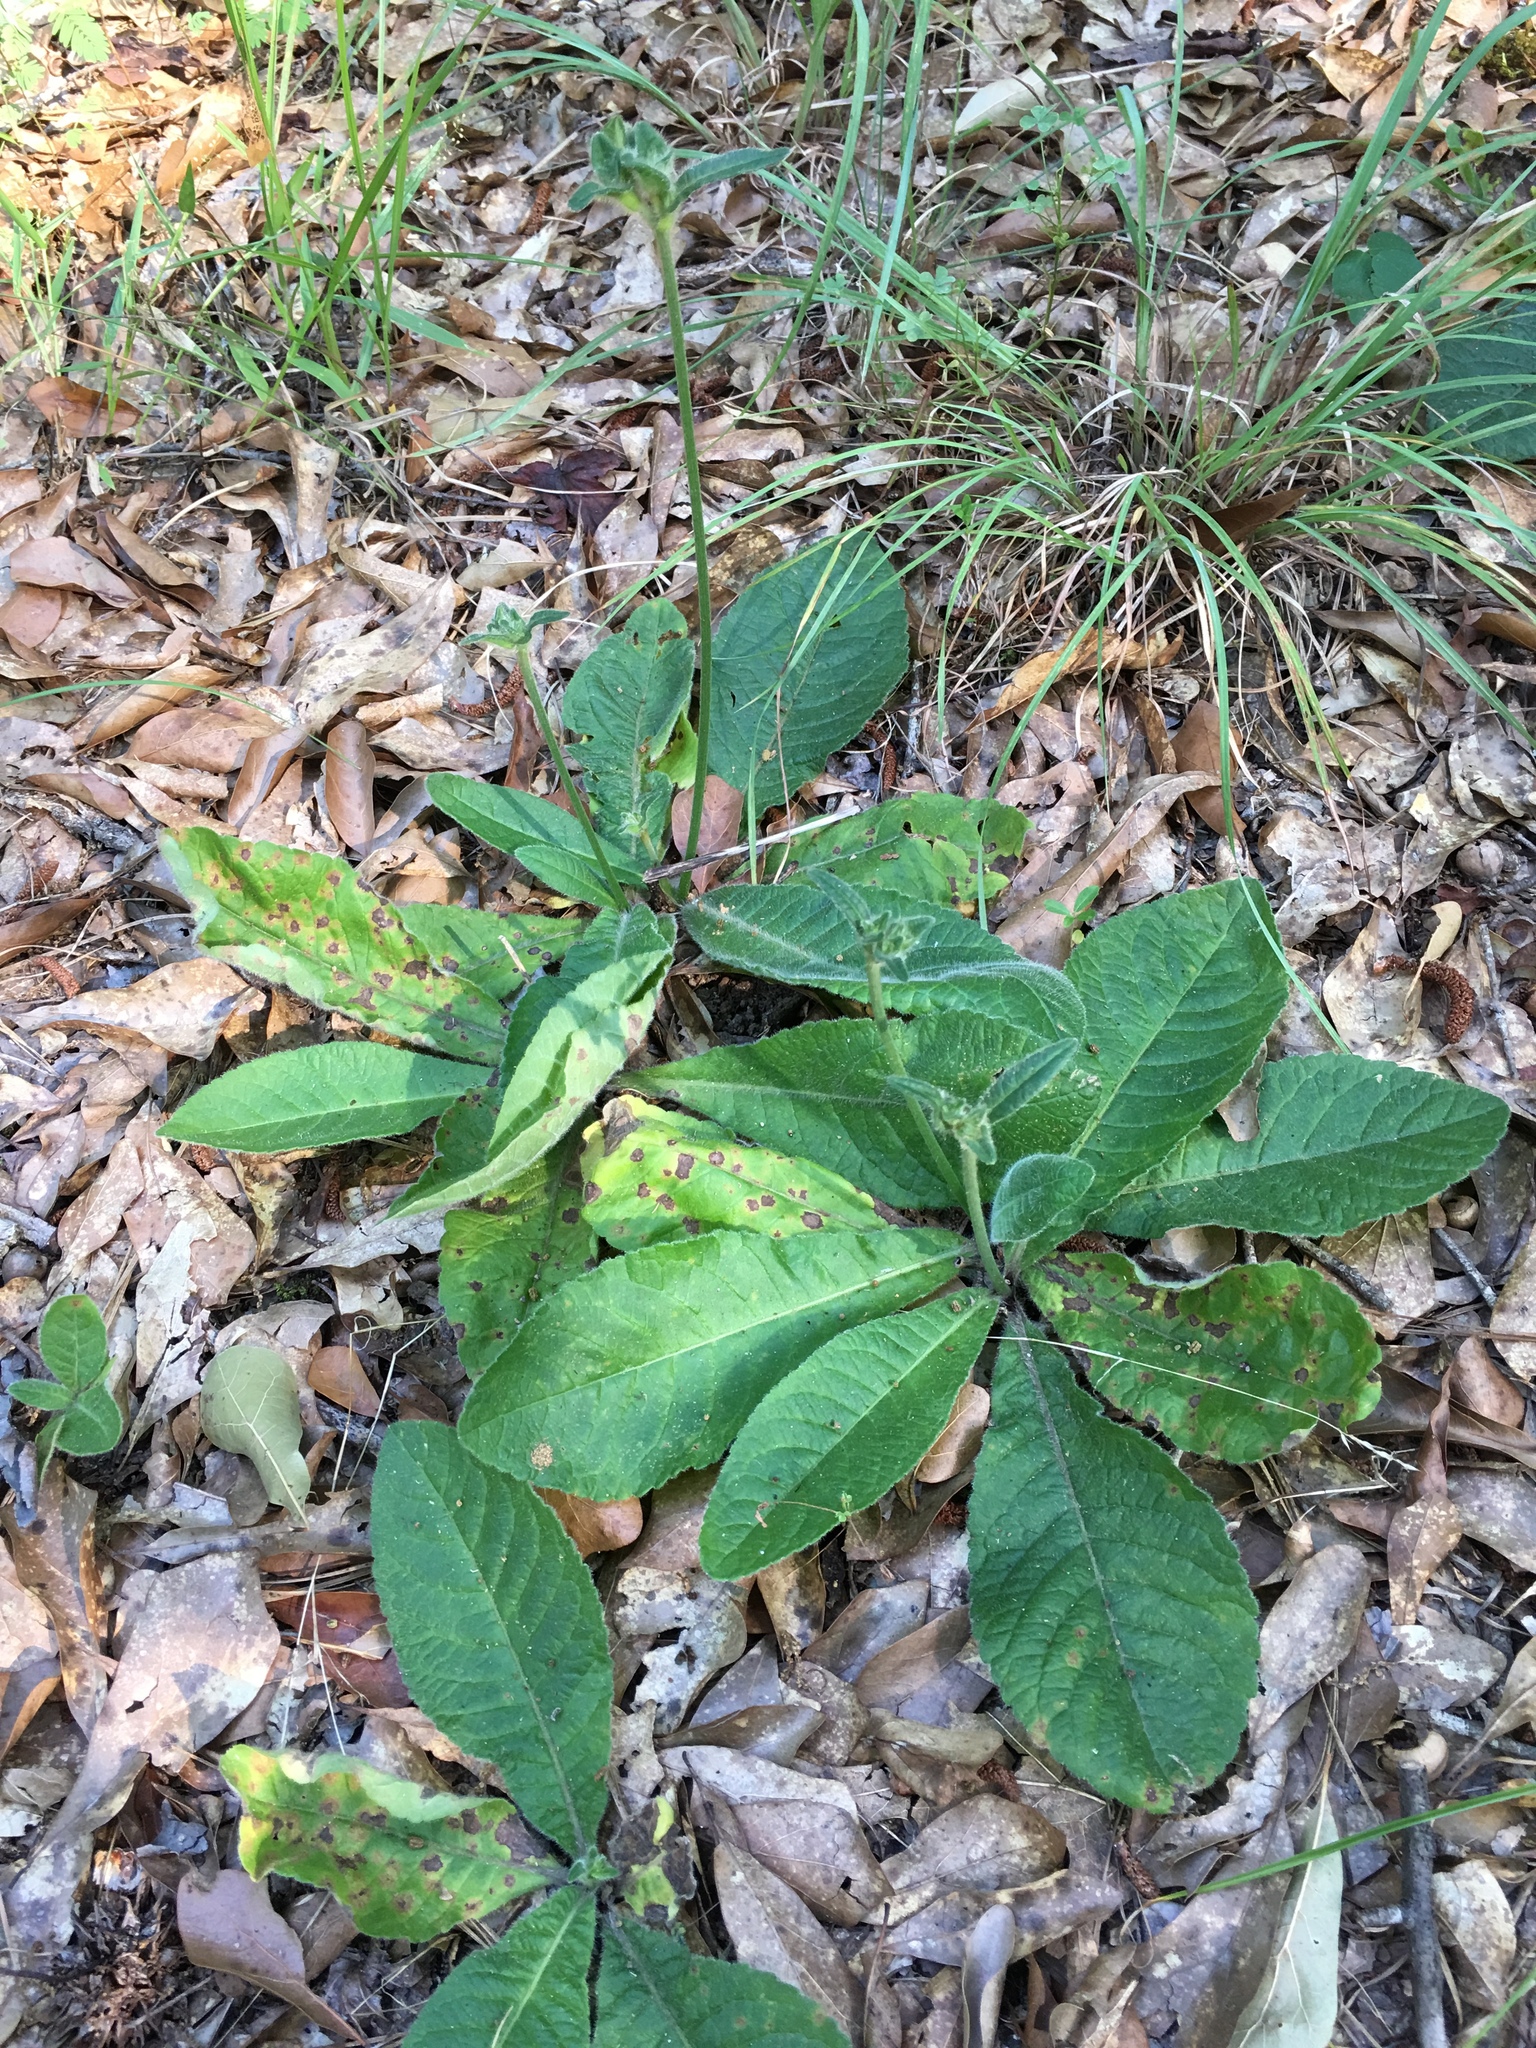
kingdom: Plantae
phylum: Tracheophyta
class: Magnoliopsida
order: Asterales
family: Asteraceae
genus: Elephantopus
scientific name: Elephantopus tomentosus
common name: Tobacco-weed
